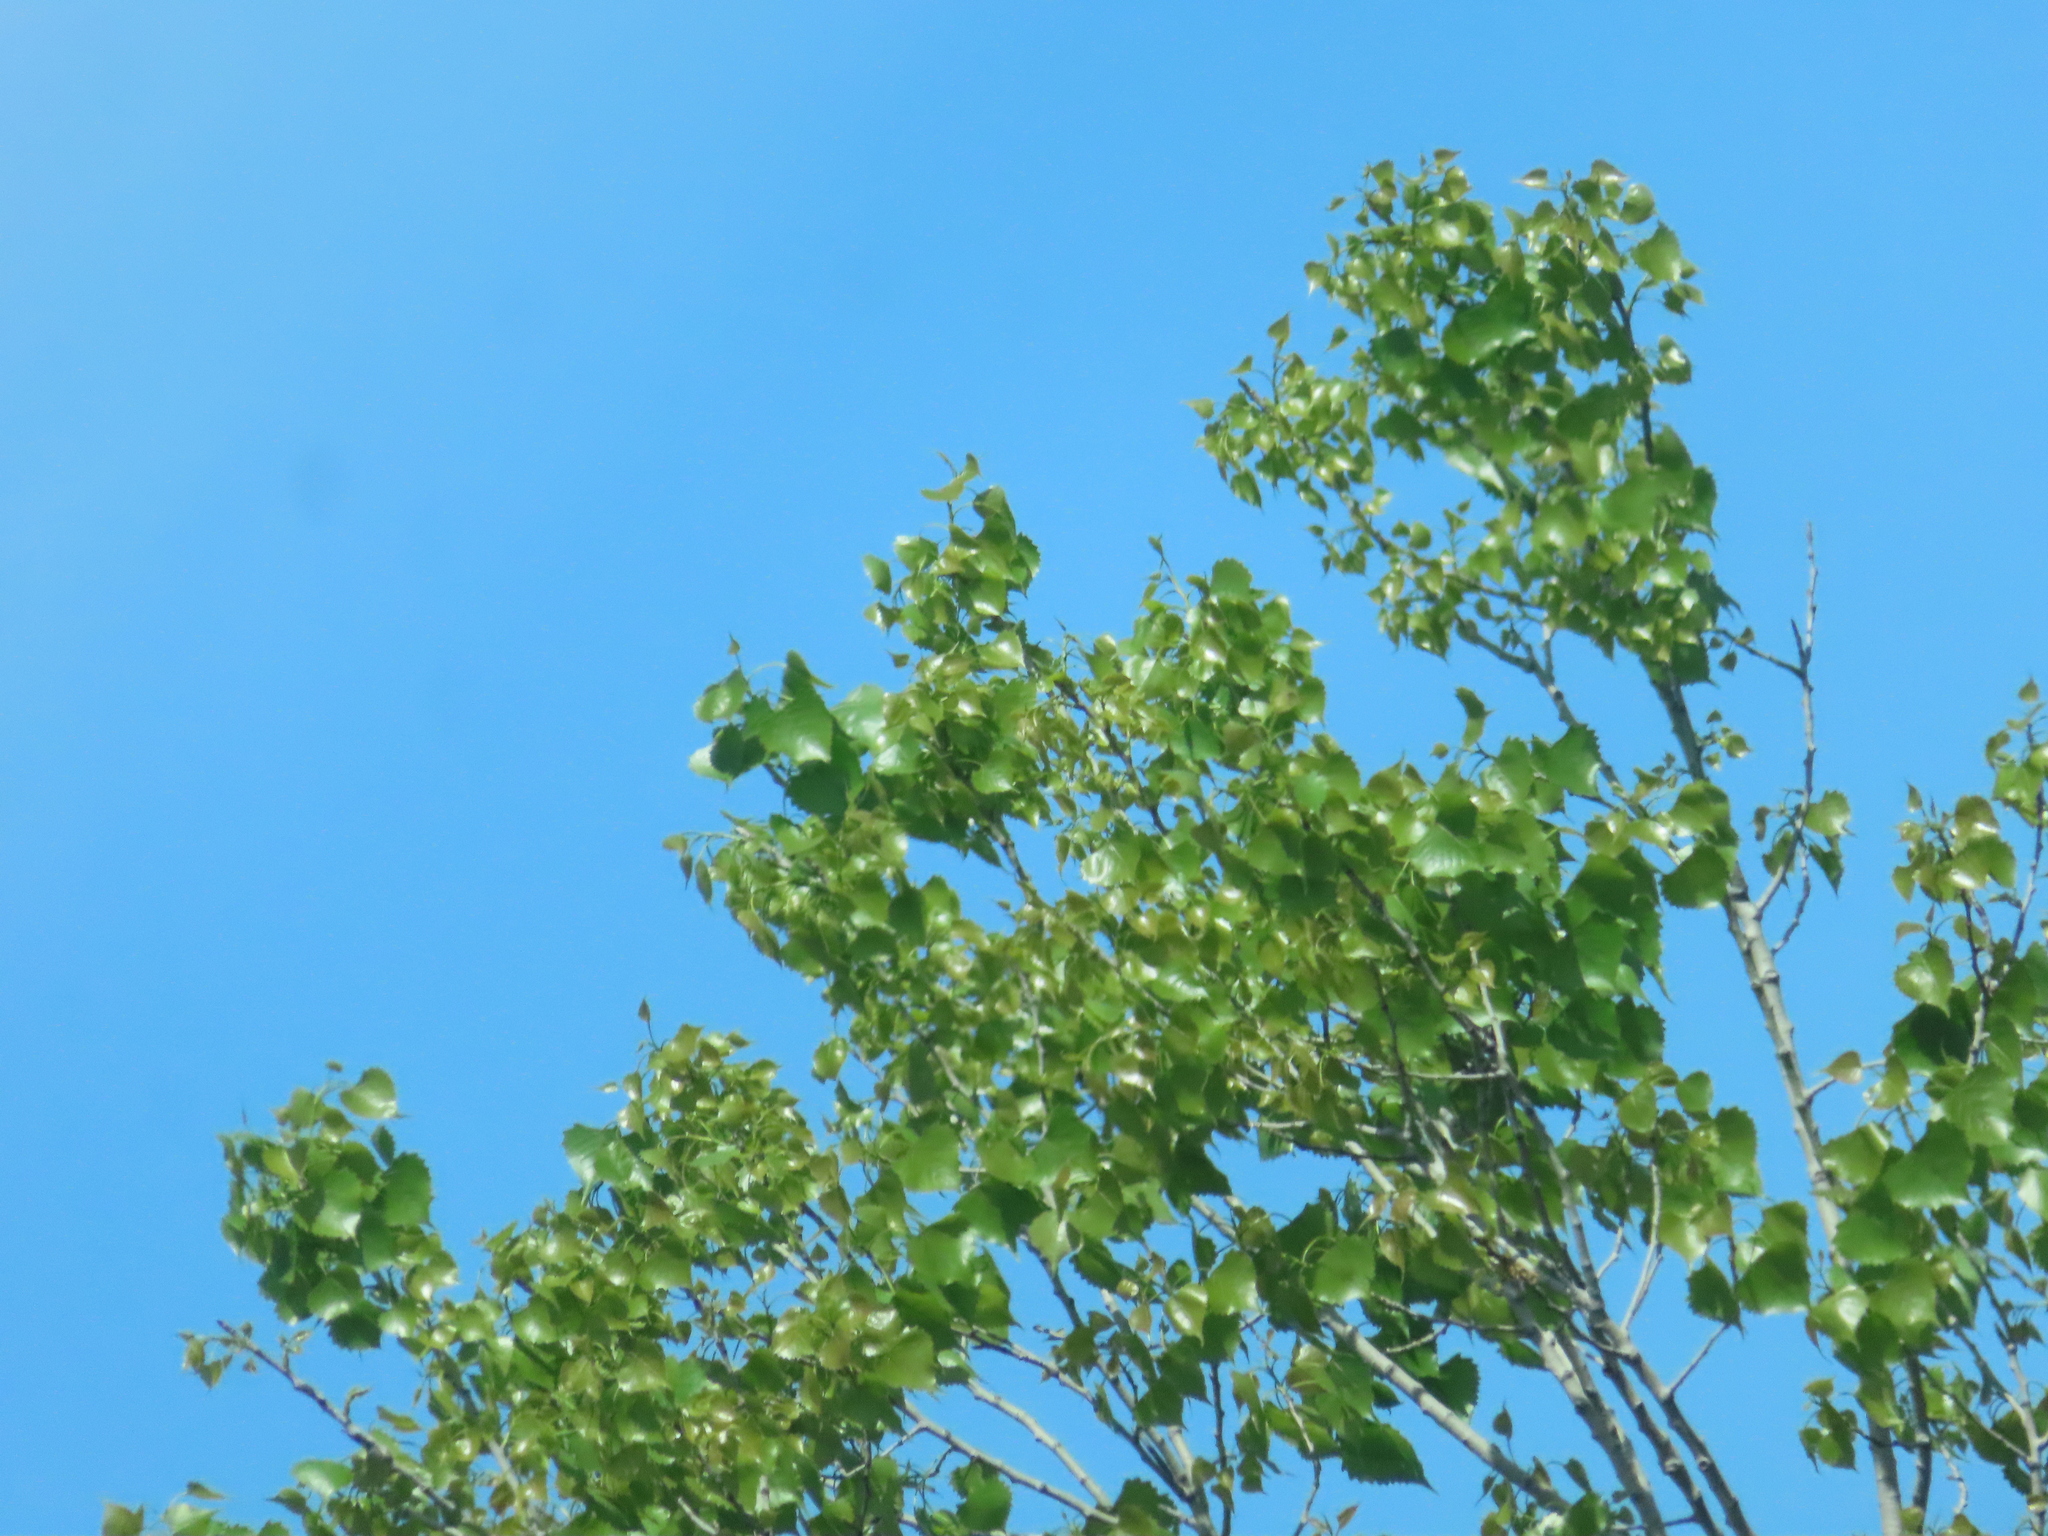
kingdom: Plantae
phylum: Tracheophyta
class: Magnoliopsida
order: Malpighiales
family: Salicaceae
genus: Populus
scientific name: Populus deltoides
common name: Eastern cottonwood
